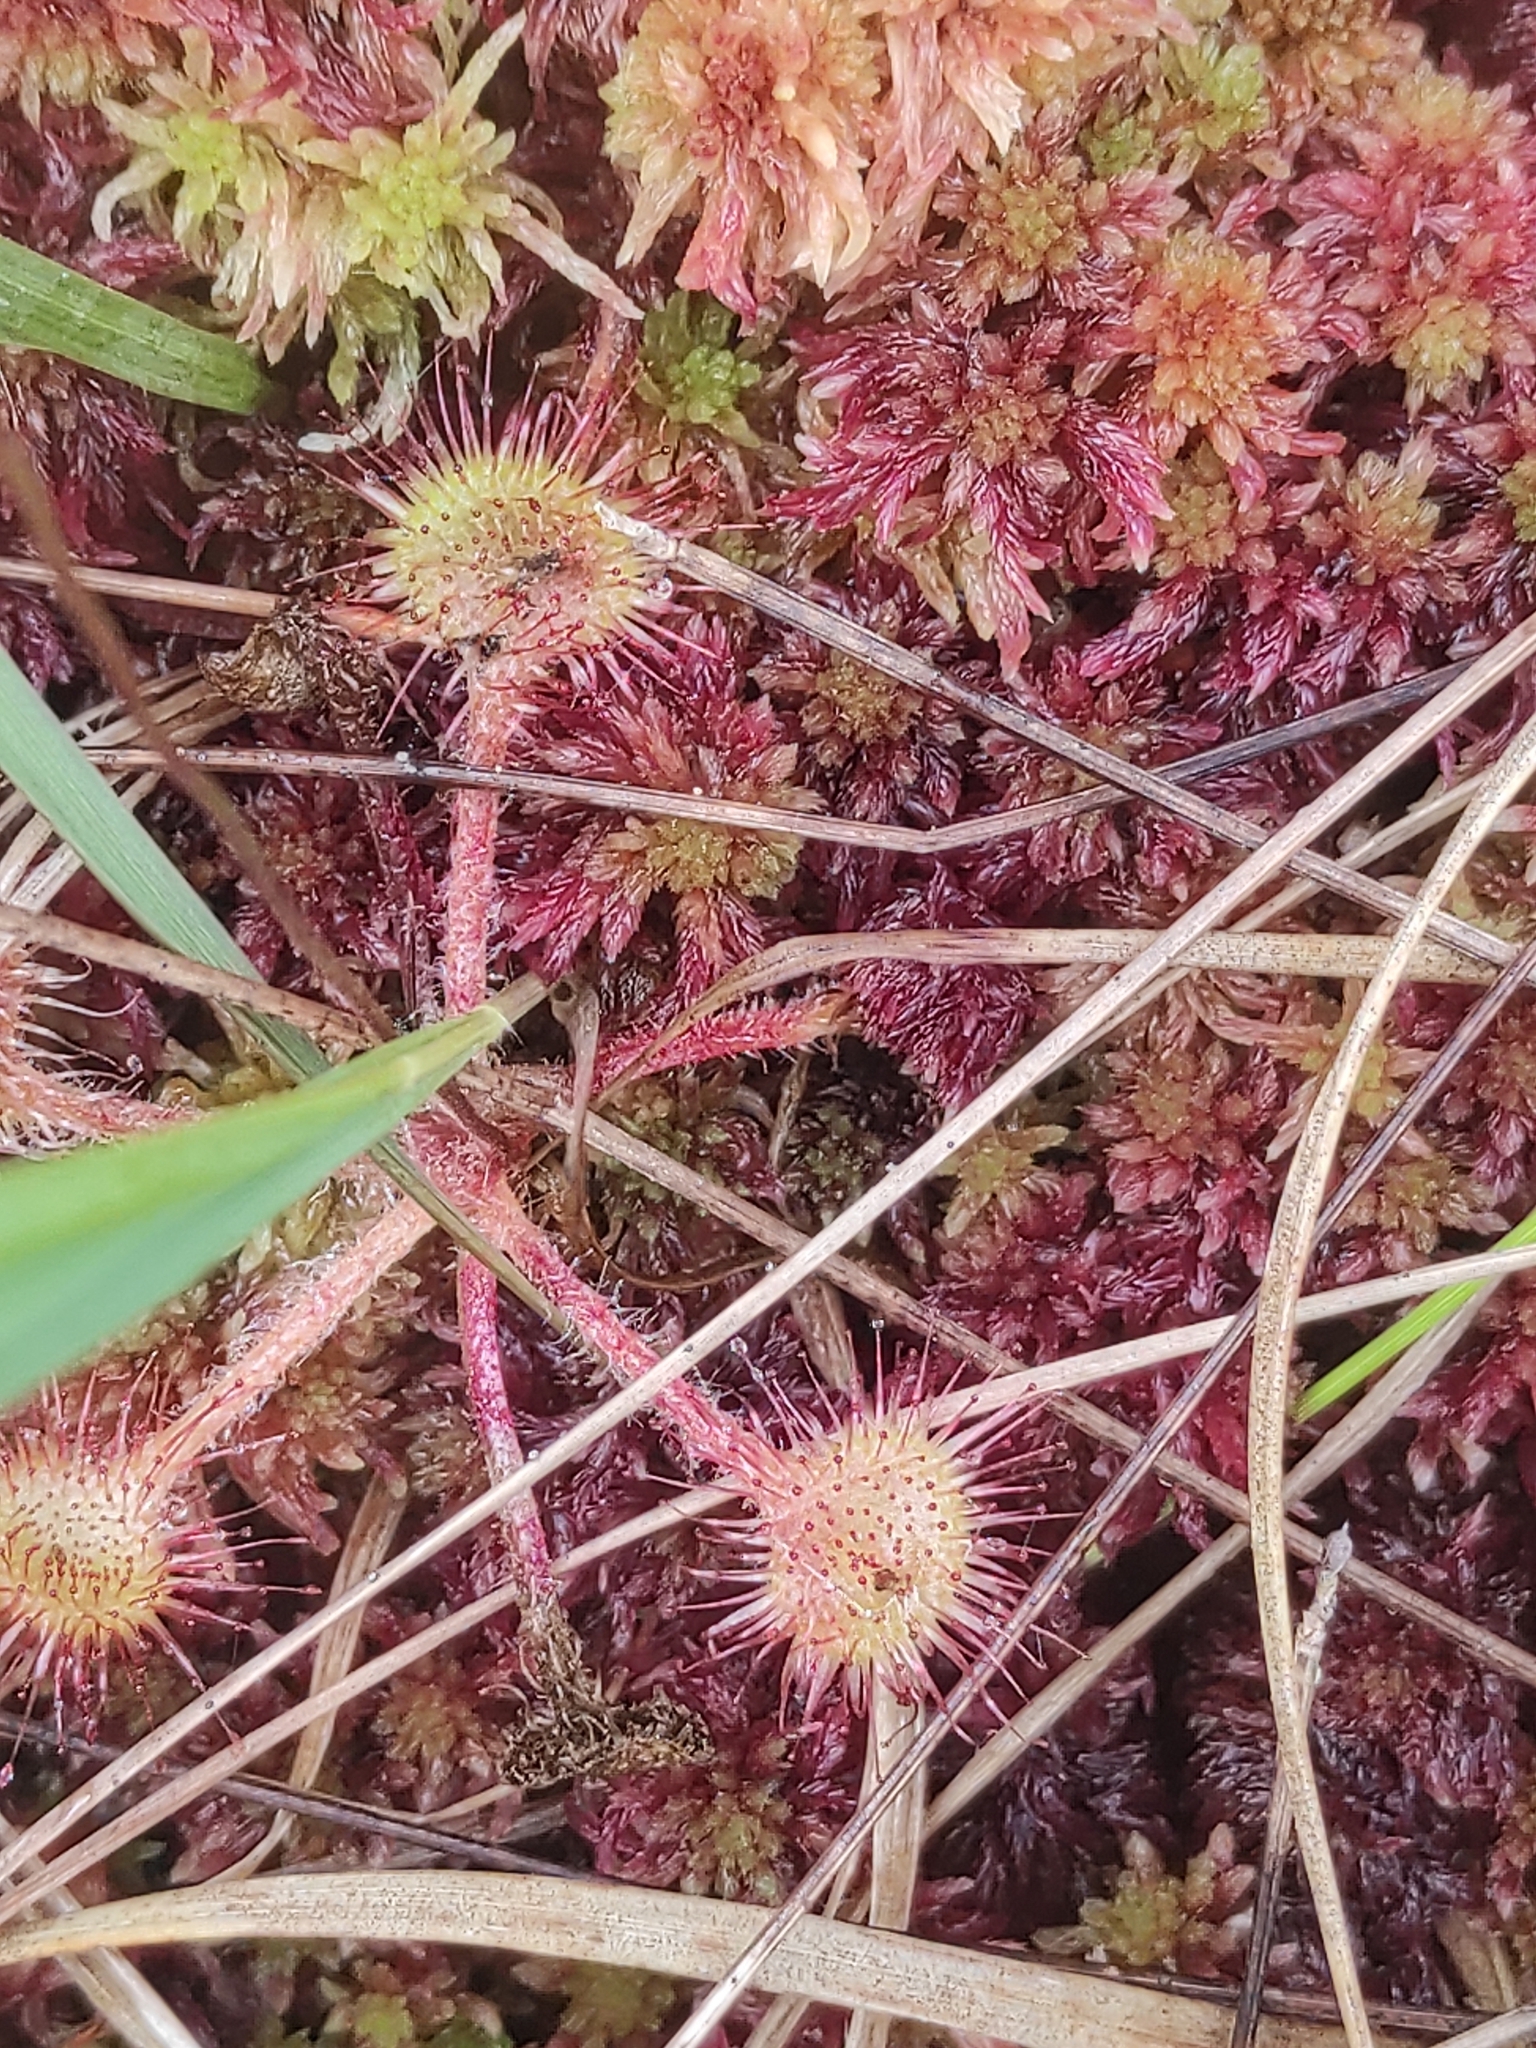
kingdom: Plantae
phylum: Tracheophyta
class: Magnoliopsida
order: Caryophyllales
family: Droseraceae
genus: Drosera
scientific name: Drosera rotundifolia
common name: Round-leaved sundew
